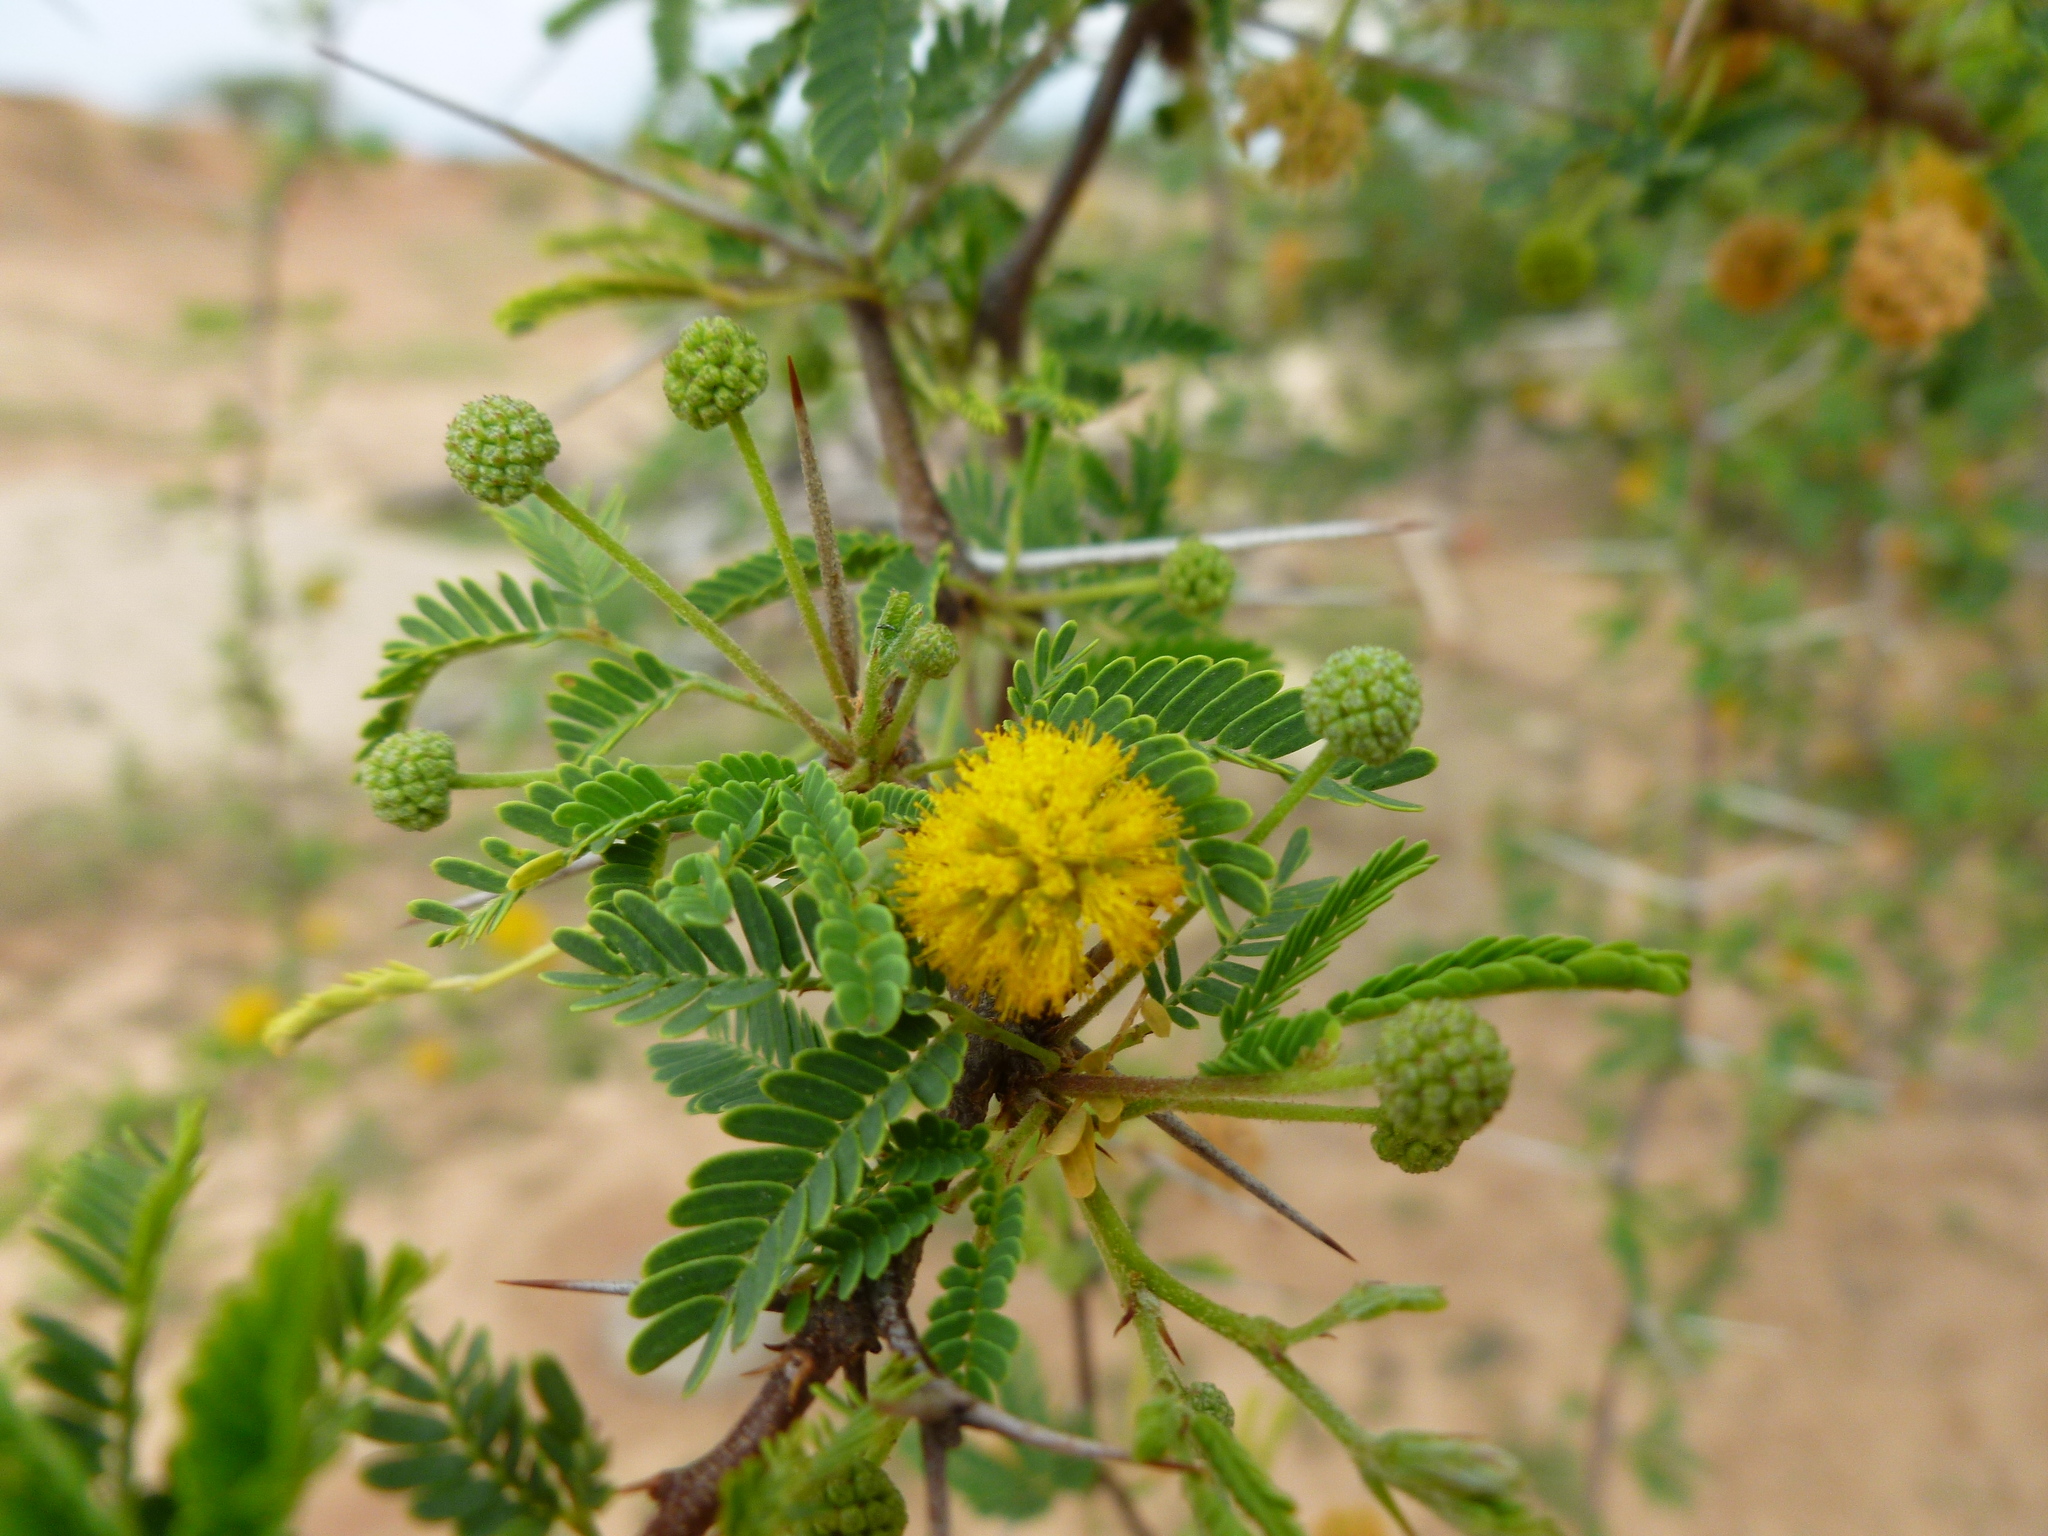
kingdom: Plantae
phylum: Tracheophyta
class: Magnoliopsida
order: Fabales
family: Fabaceae
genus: Vachellia
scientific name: Vachellia farnesiana
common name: Sweet acacia
